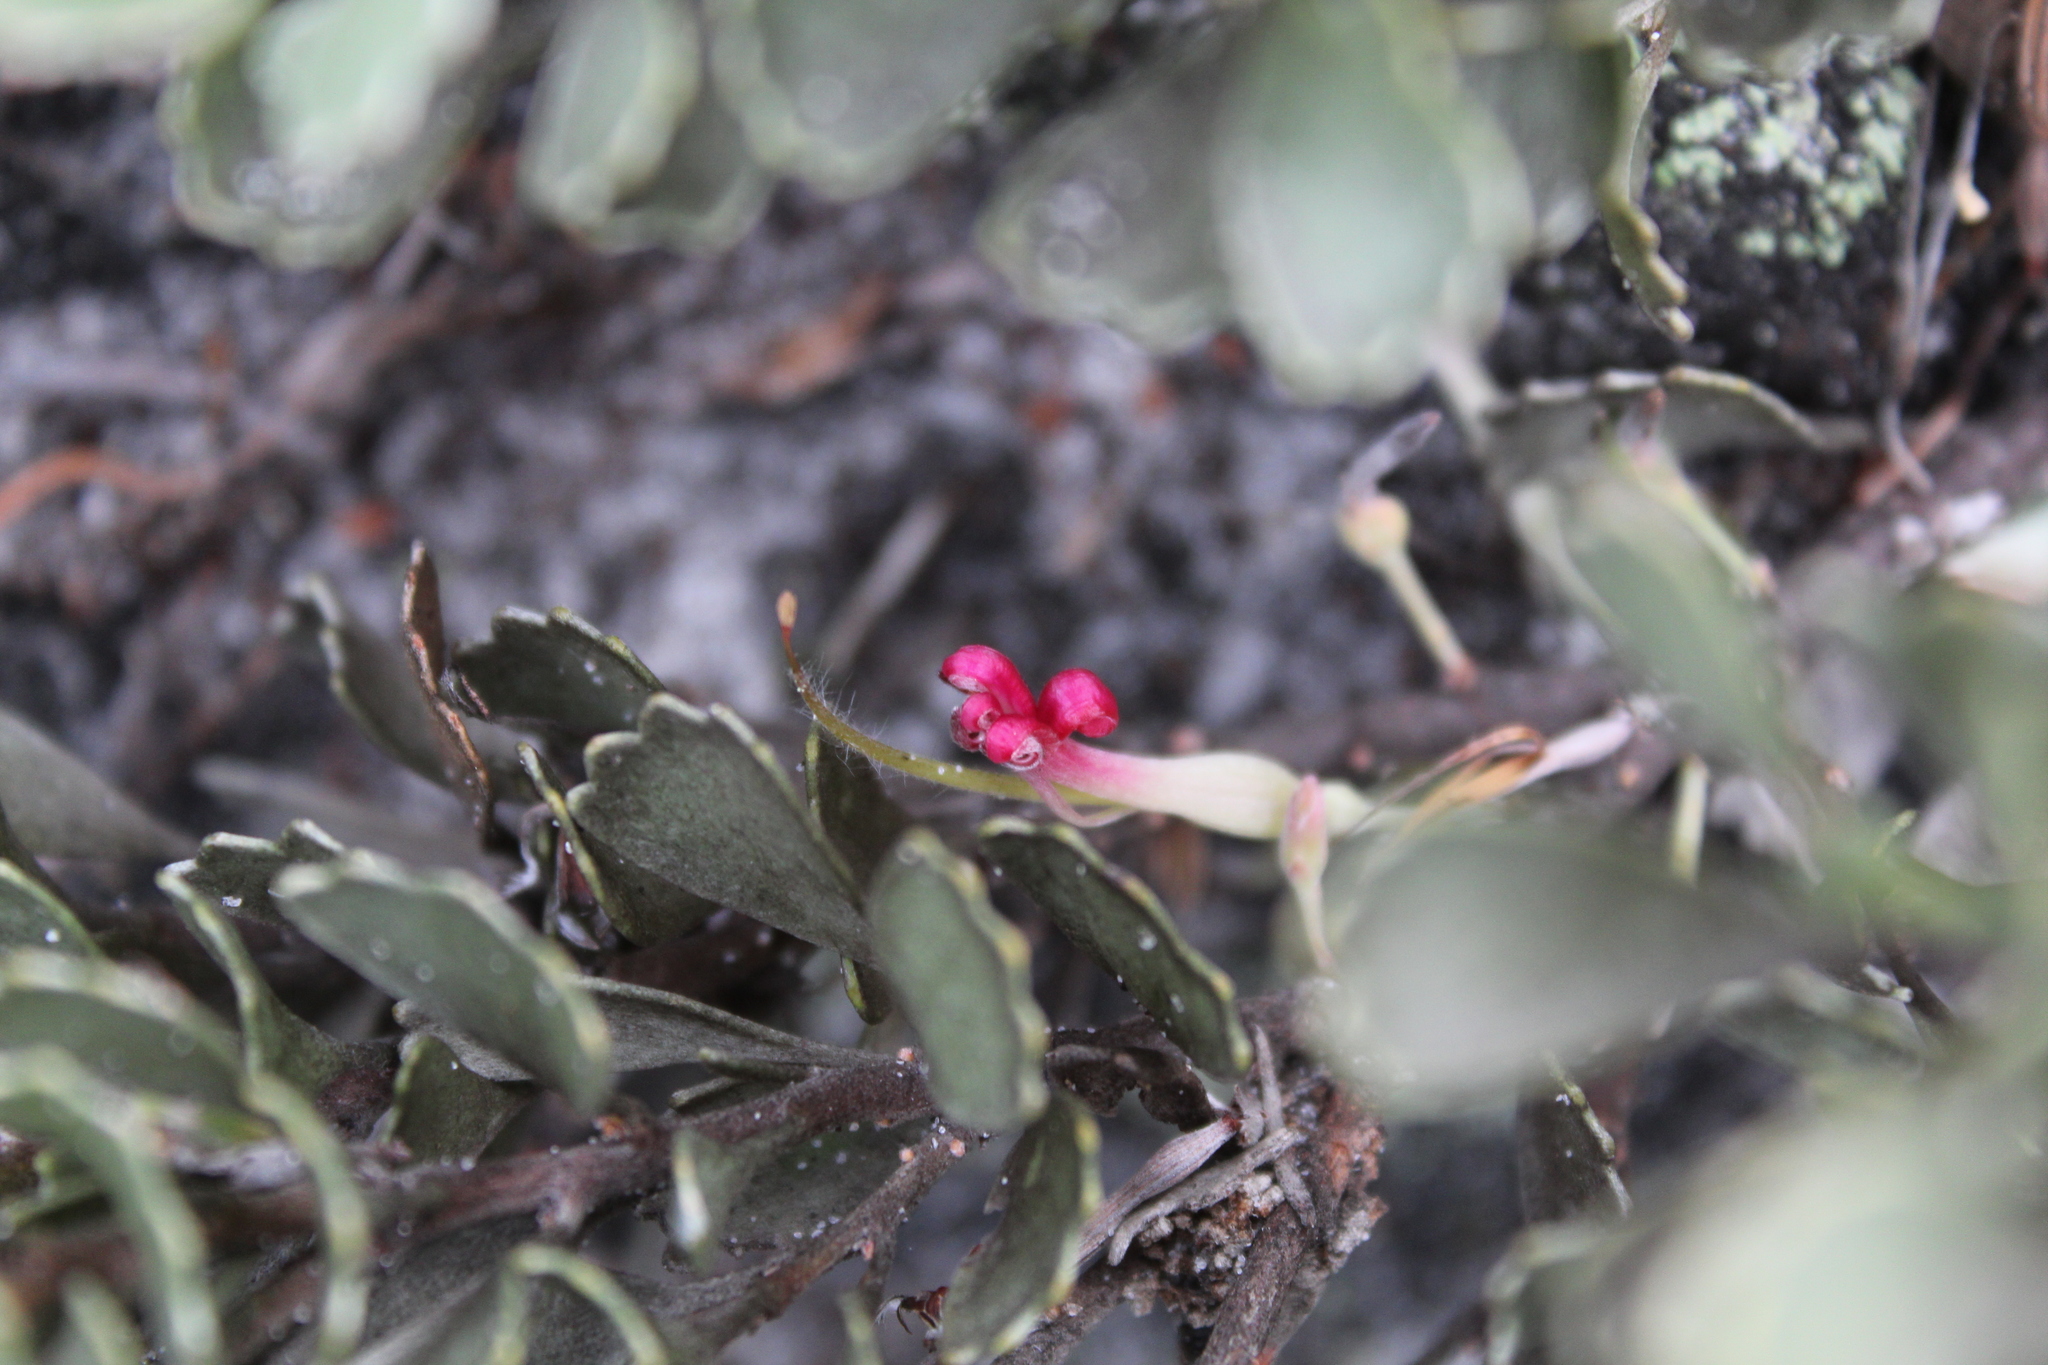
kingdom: Plantae
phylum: Tracheophyta
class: Magnoliopsida
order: Proteales
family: Proteaceae
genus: Adenanthos
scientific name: Adenanthos cuneatus
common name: Flamebush
